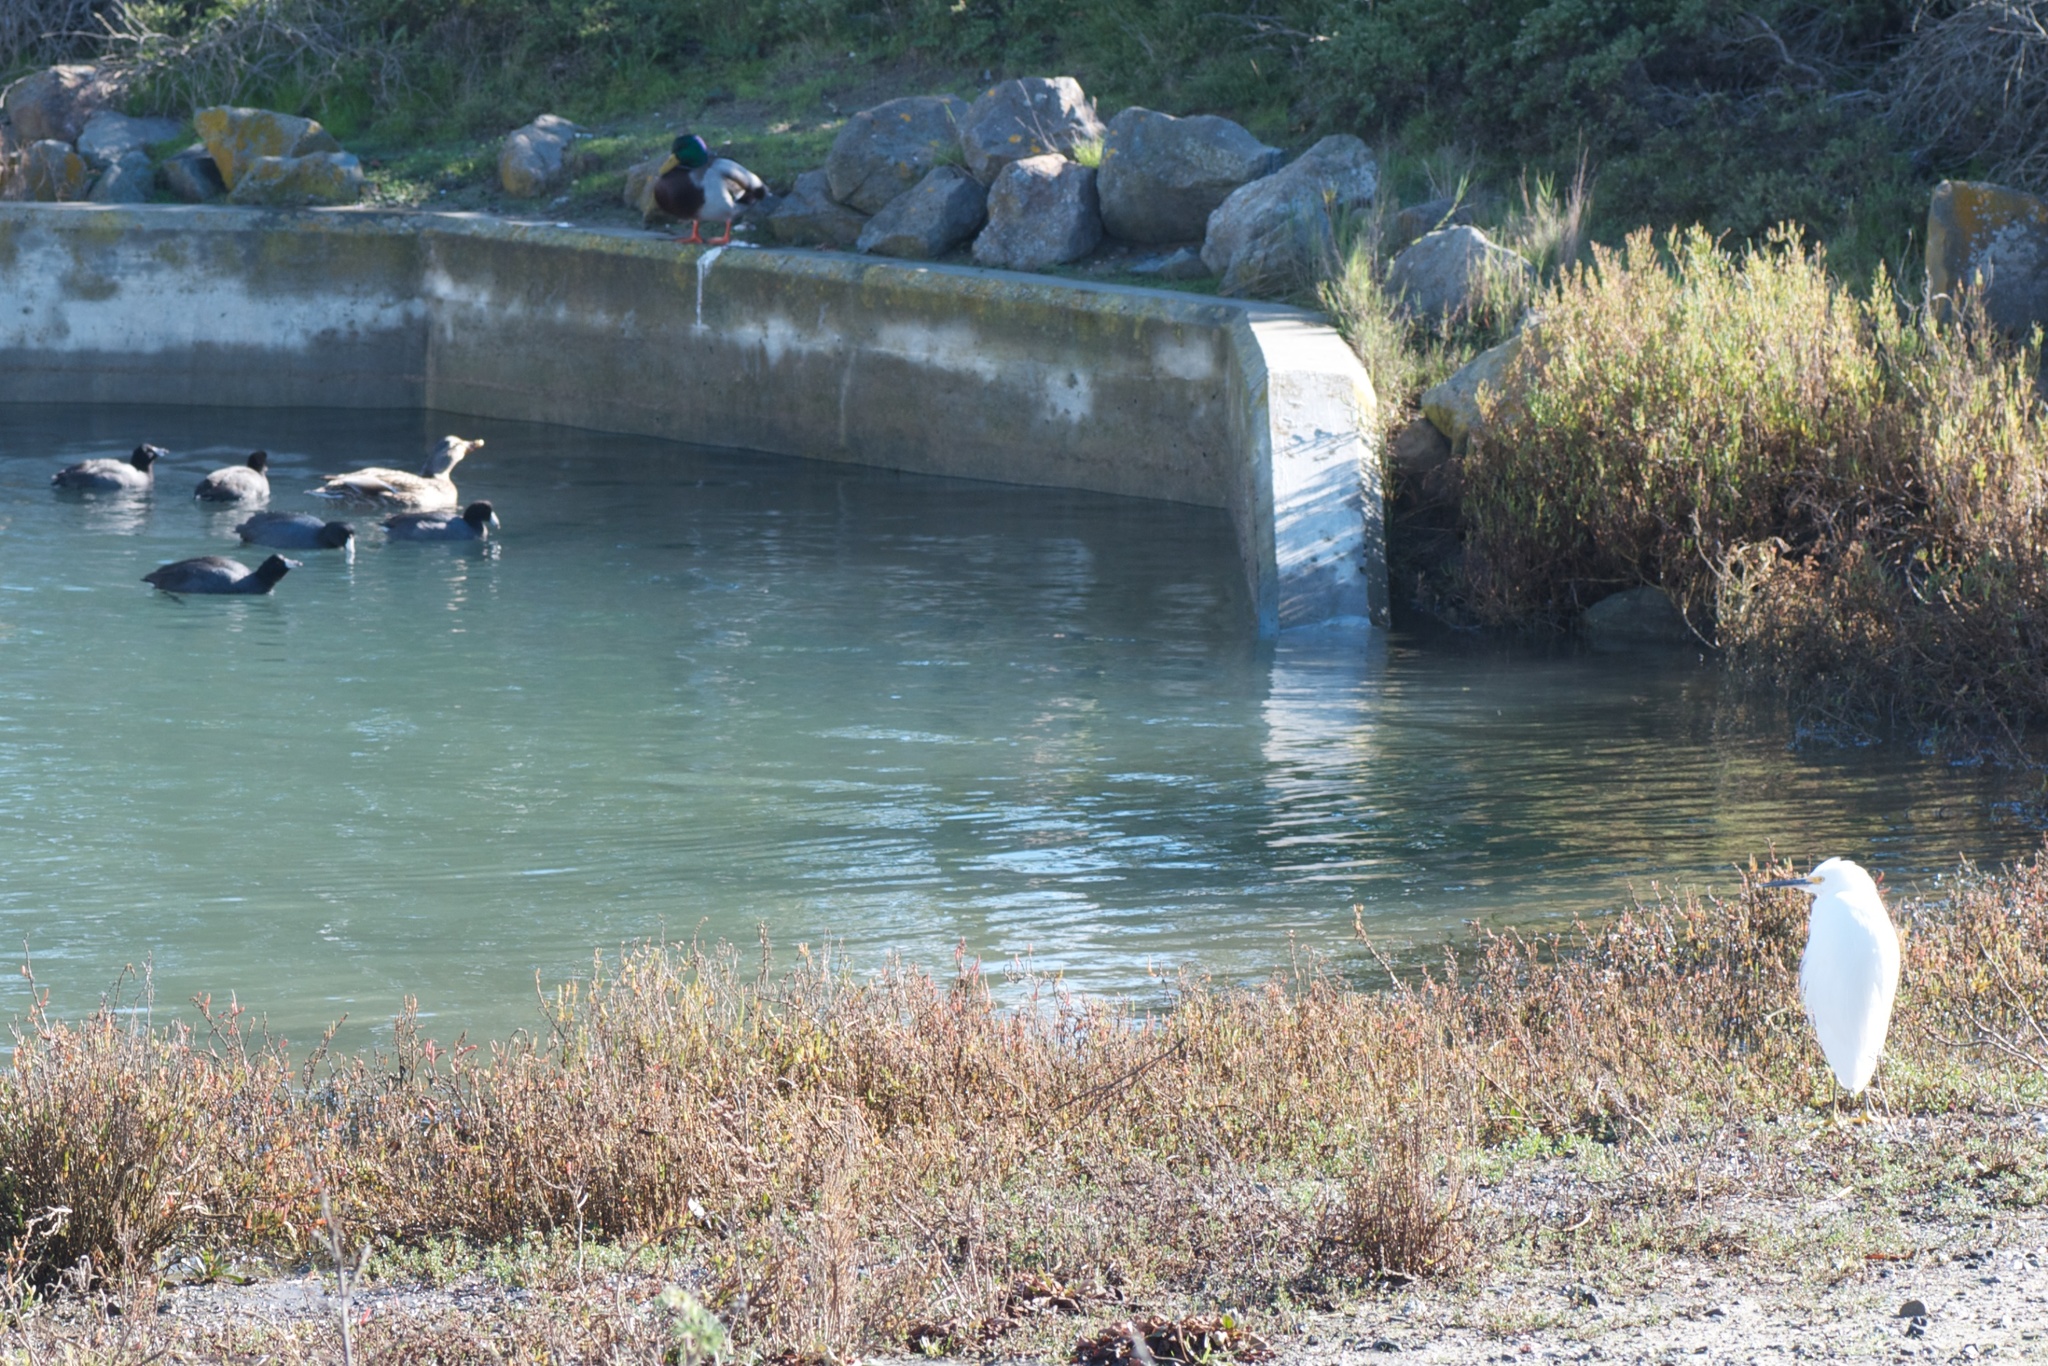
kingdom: Animalia
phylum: Chordata
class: Aves
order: Anseriformes
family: Anatidae
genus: Anas
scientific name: Anas platyrhynchos
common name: Mallard
